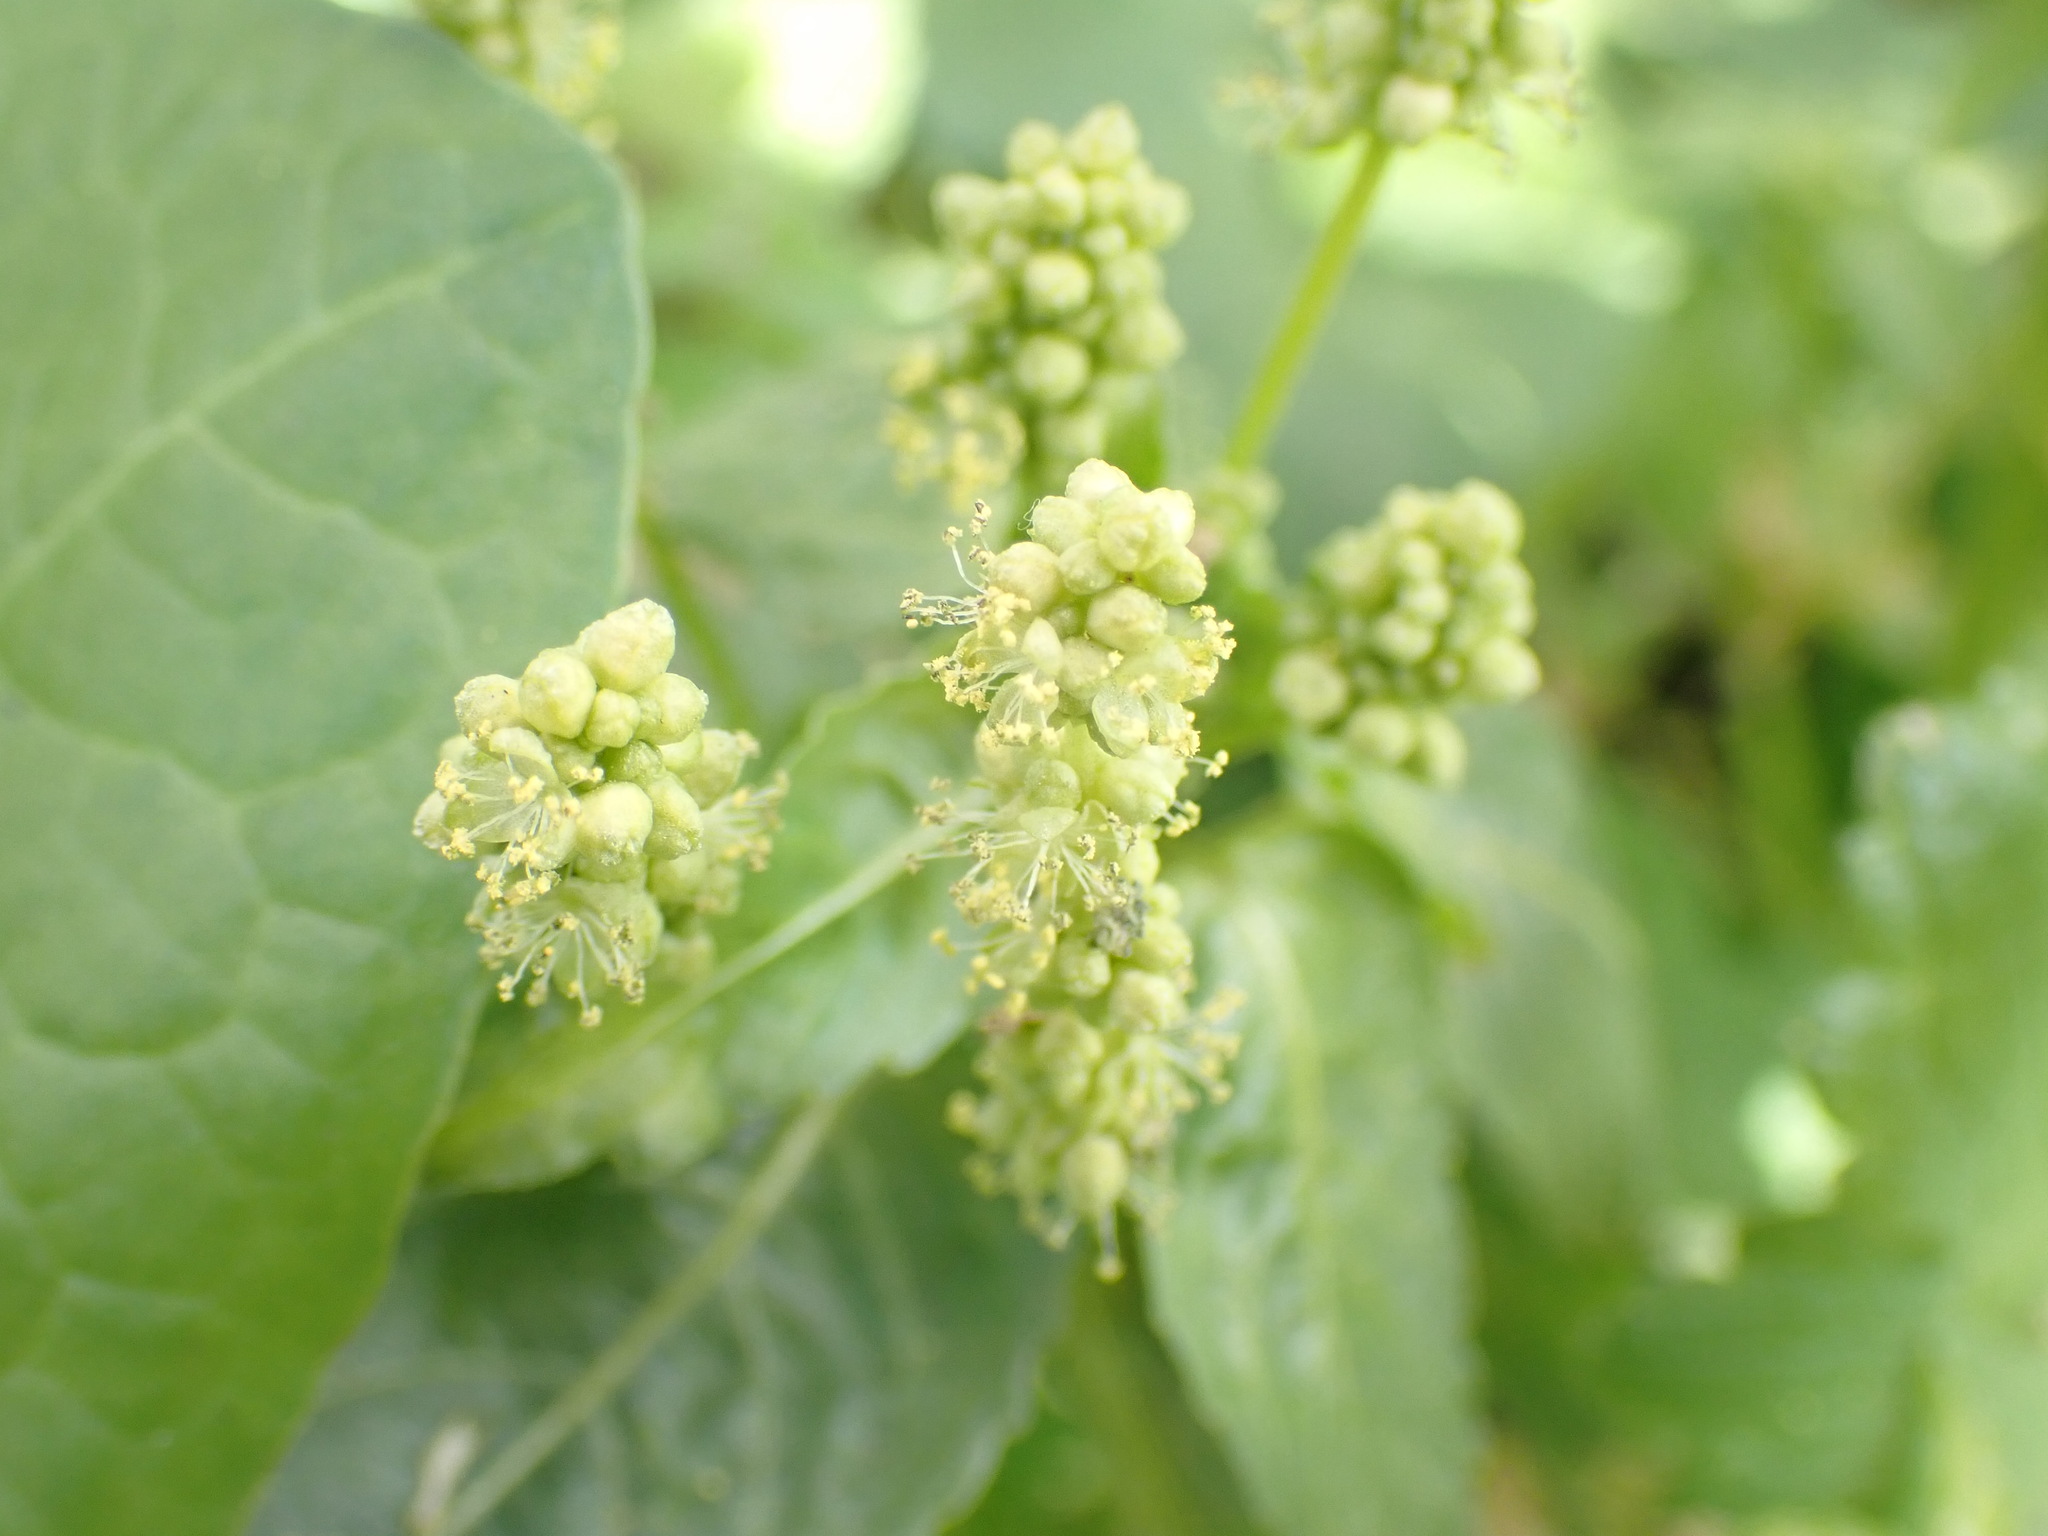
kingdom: Plantae
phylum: Tracheophyta
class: Magnoliopsida
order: Malpighiales
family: Euphorbiaceae
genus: Mercurialis
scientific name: Mercurialis annua
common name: Annual mercury
